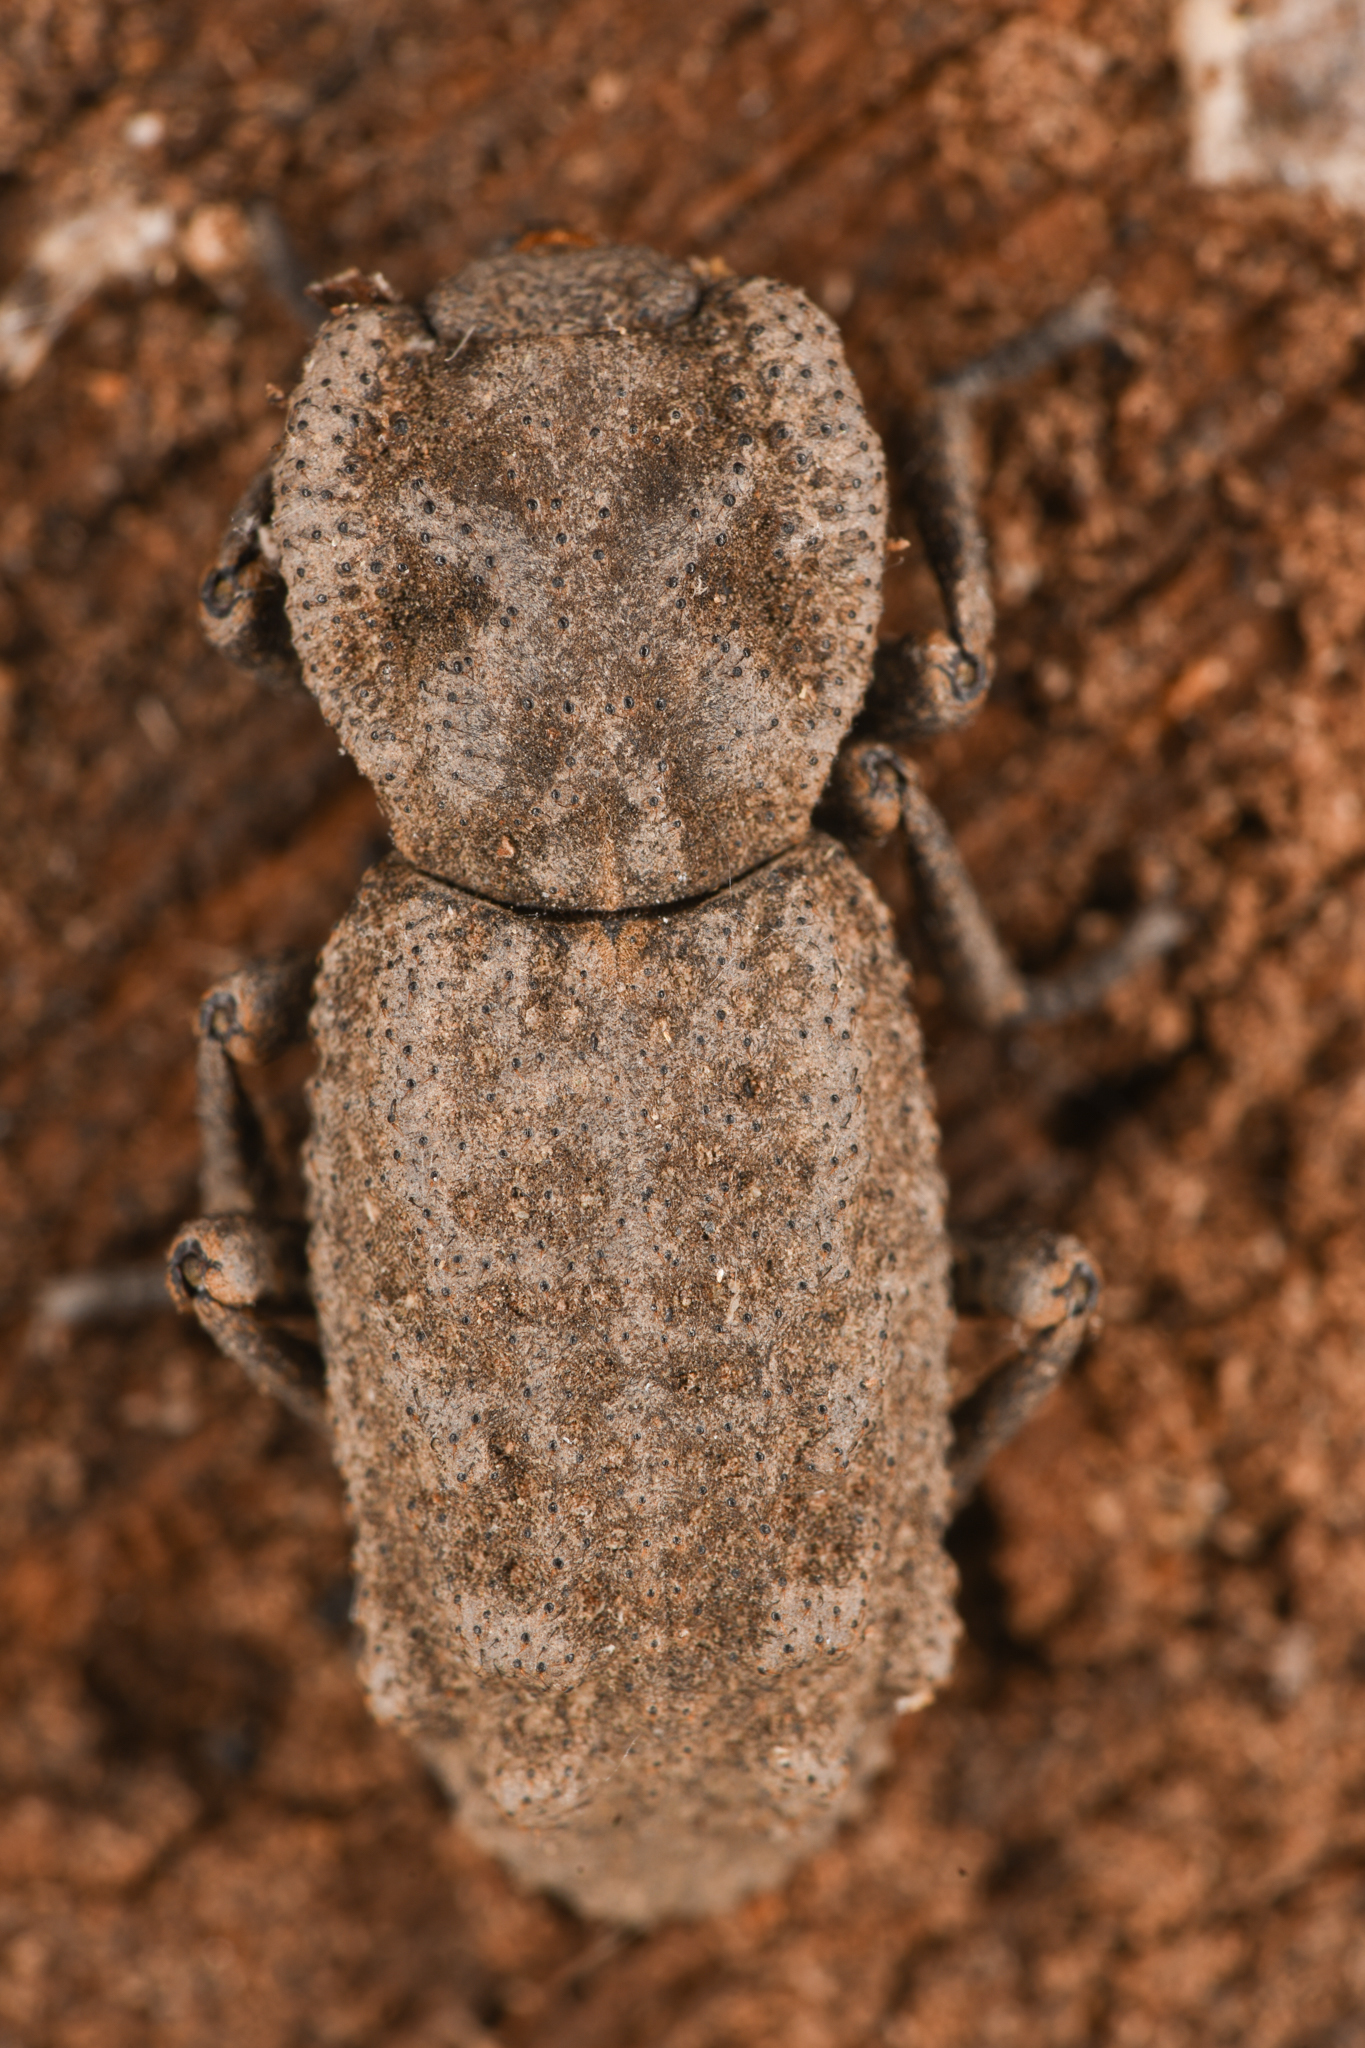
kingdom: Animalia
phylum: Arthropoda
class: Insecta
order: Coleoptera
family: Zopheridae
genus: Phloeodes
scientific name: Phloeodes plicatus
